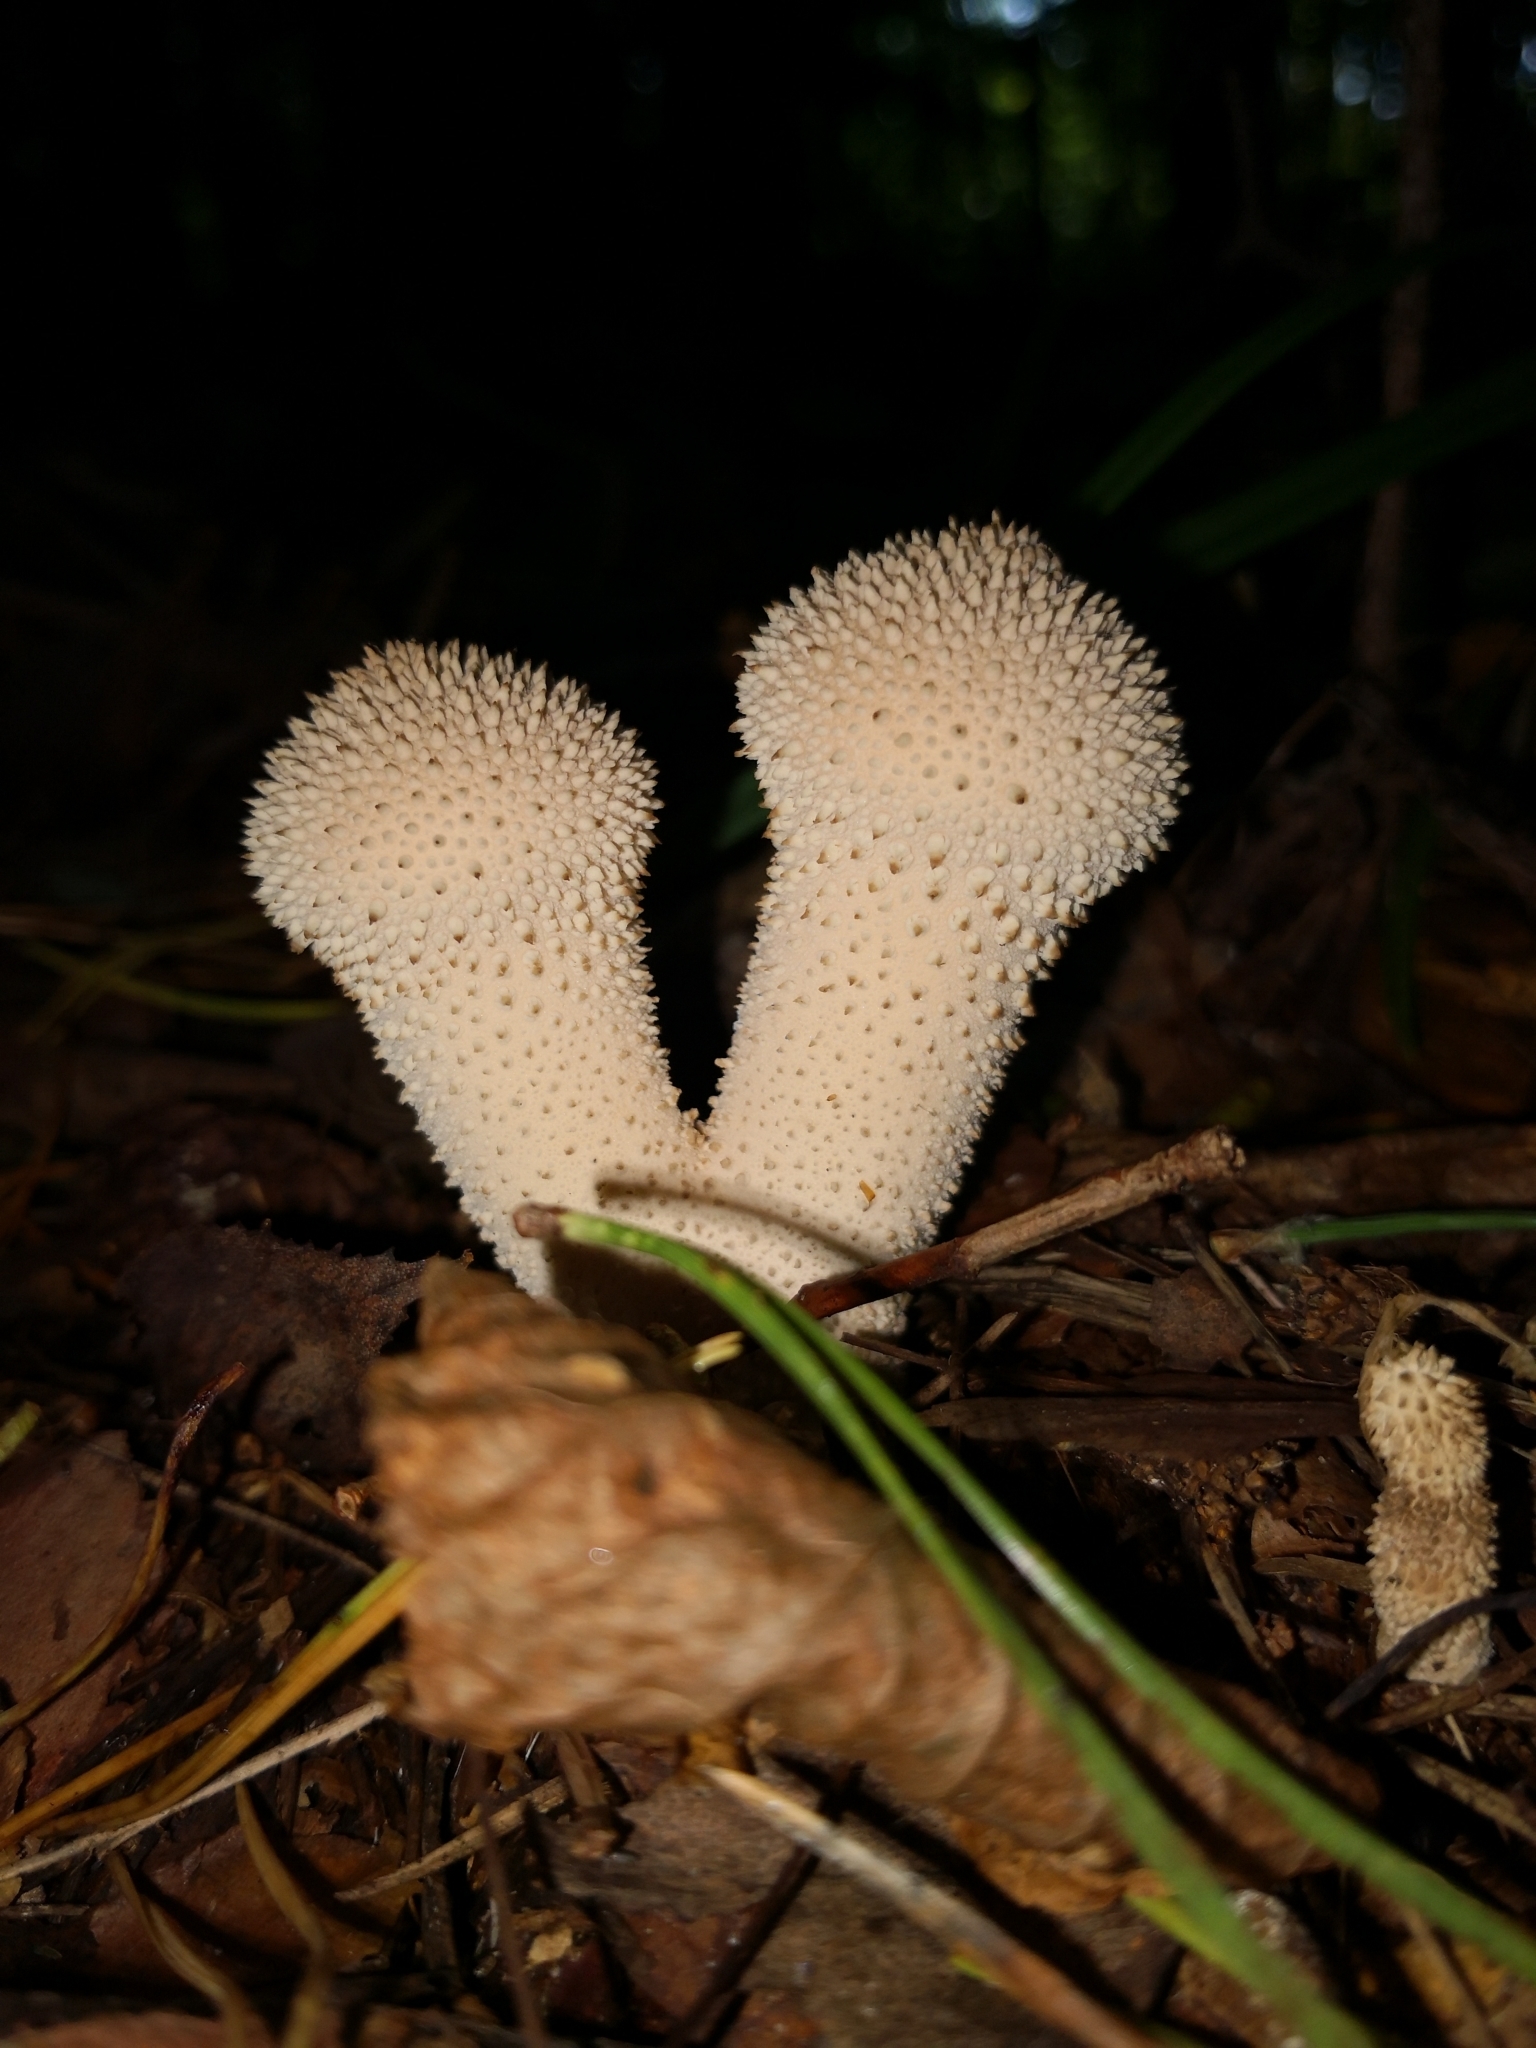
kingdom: Fungi
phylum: Basidiomycota
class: Agaricomycetes
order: Agaricales
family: Lycoperdaceae
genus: Lycoperdon
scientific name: Lycoperdon perlatum
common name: Common puffball
